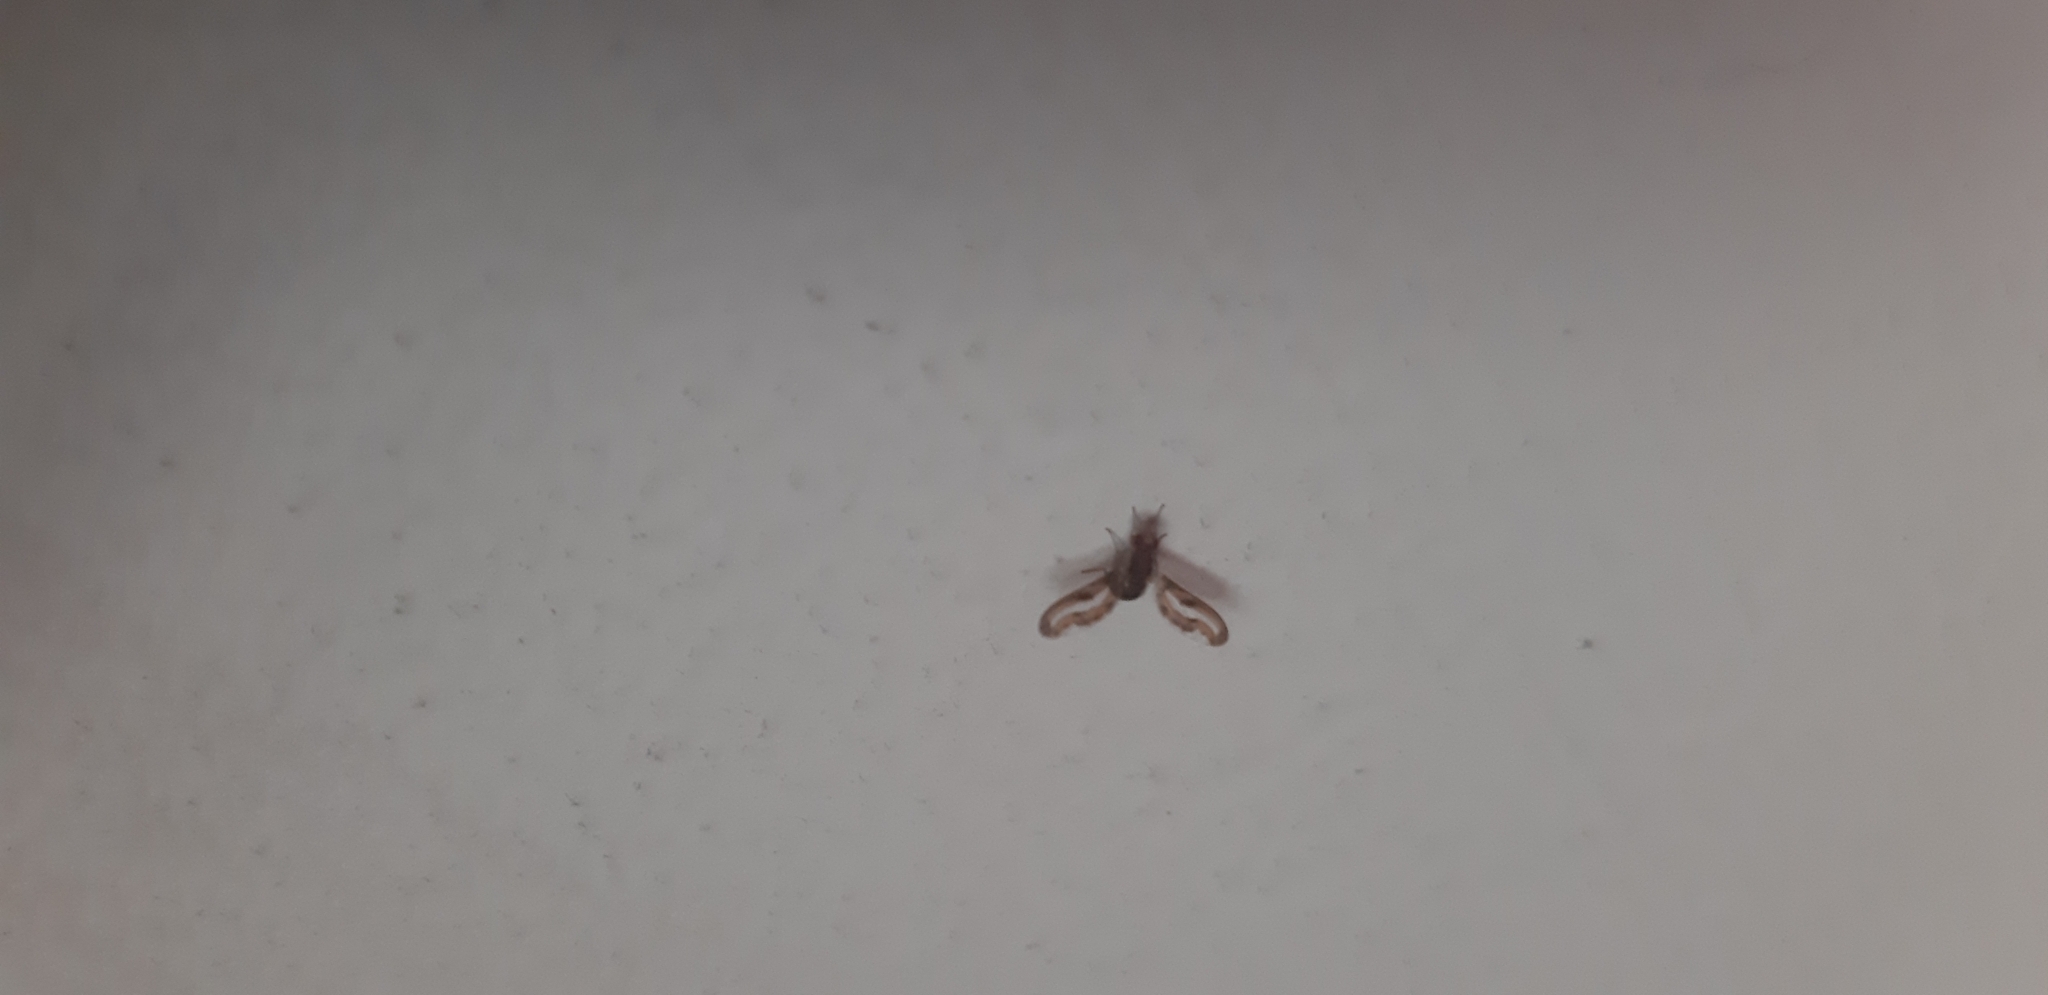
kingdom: Animalia
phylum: Arthropoda
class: Insecta
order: Diptera
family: Pallopteridae
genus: Toxonevra
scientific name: Toxonevra muliebris
